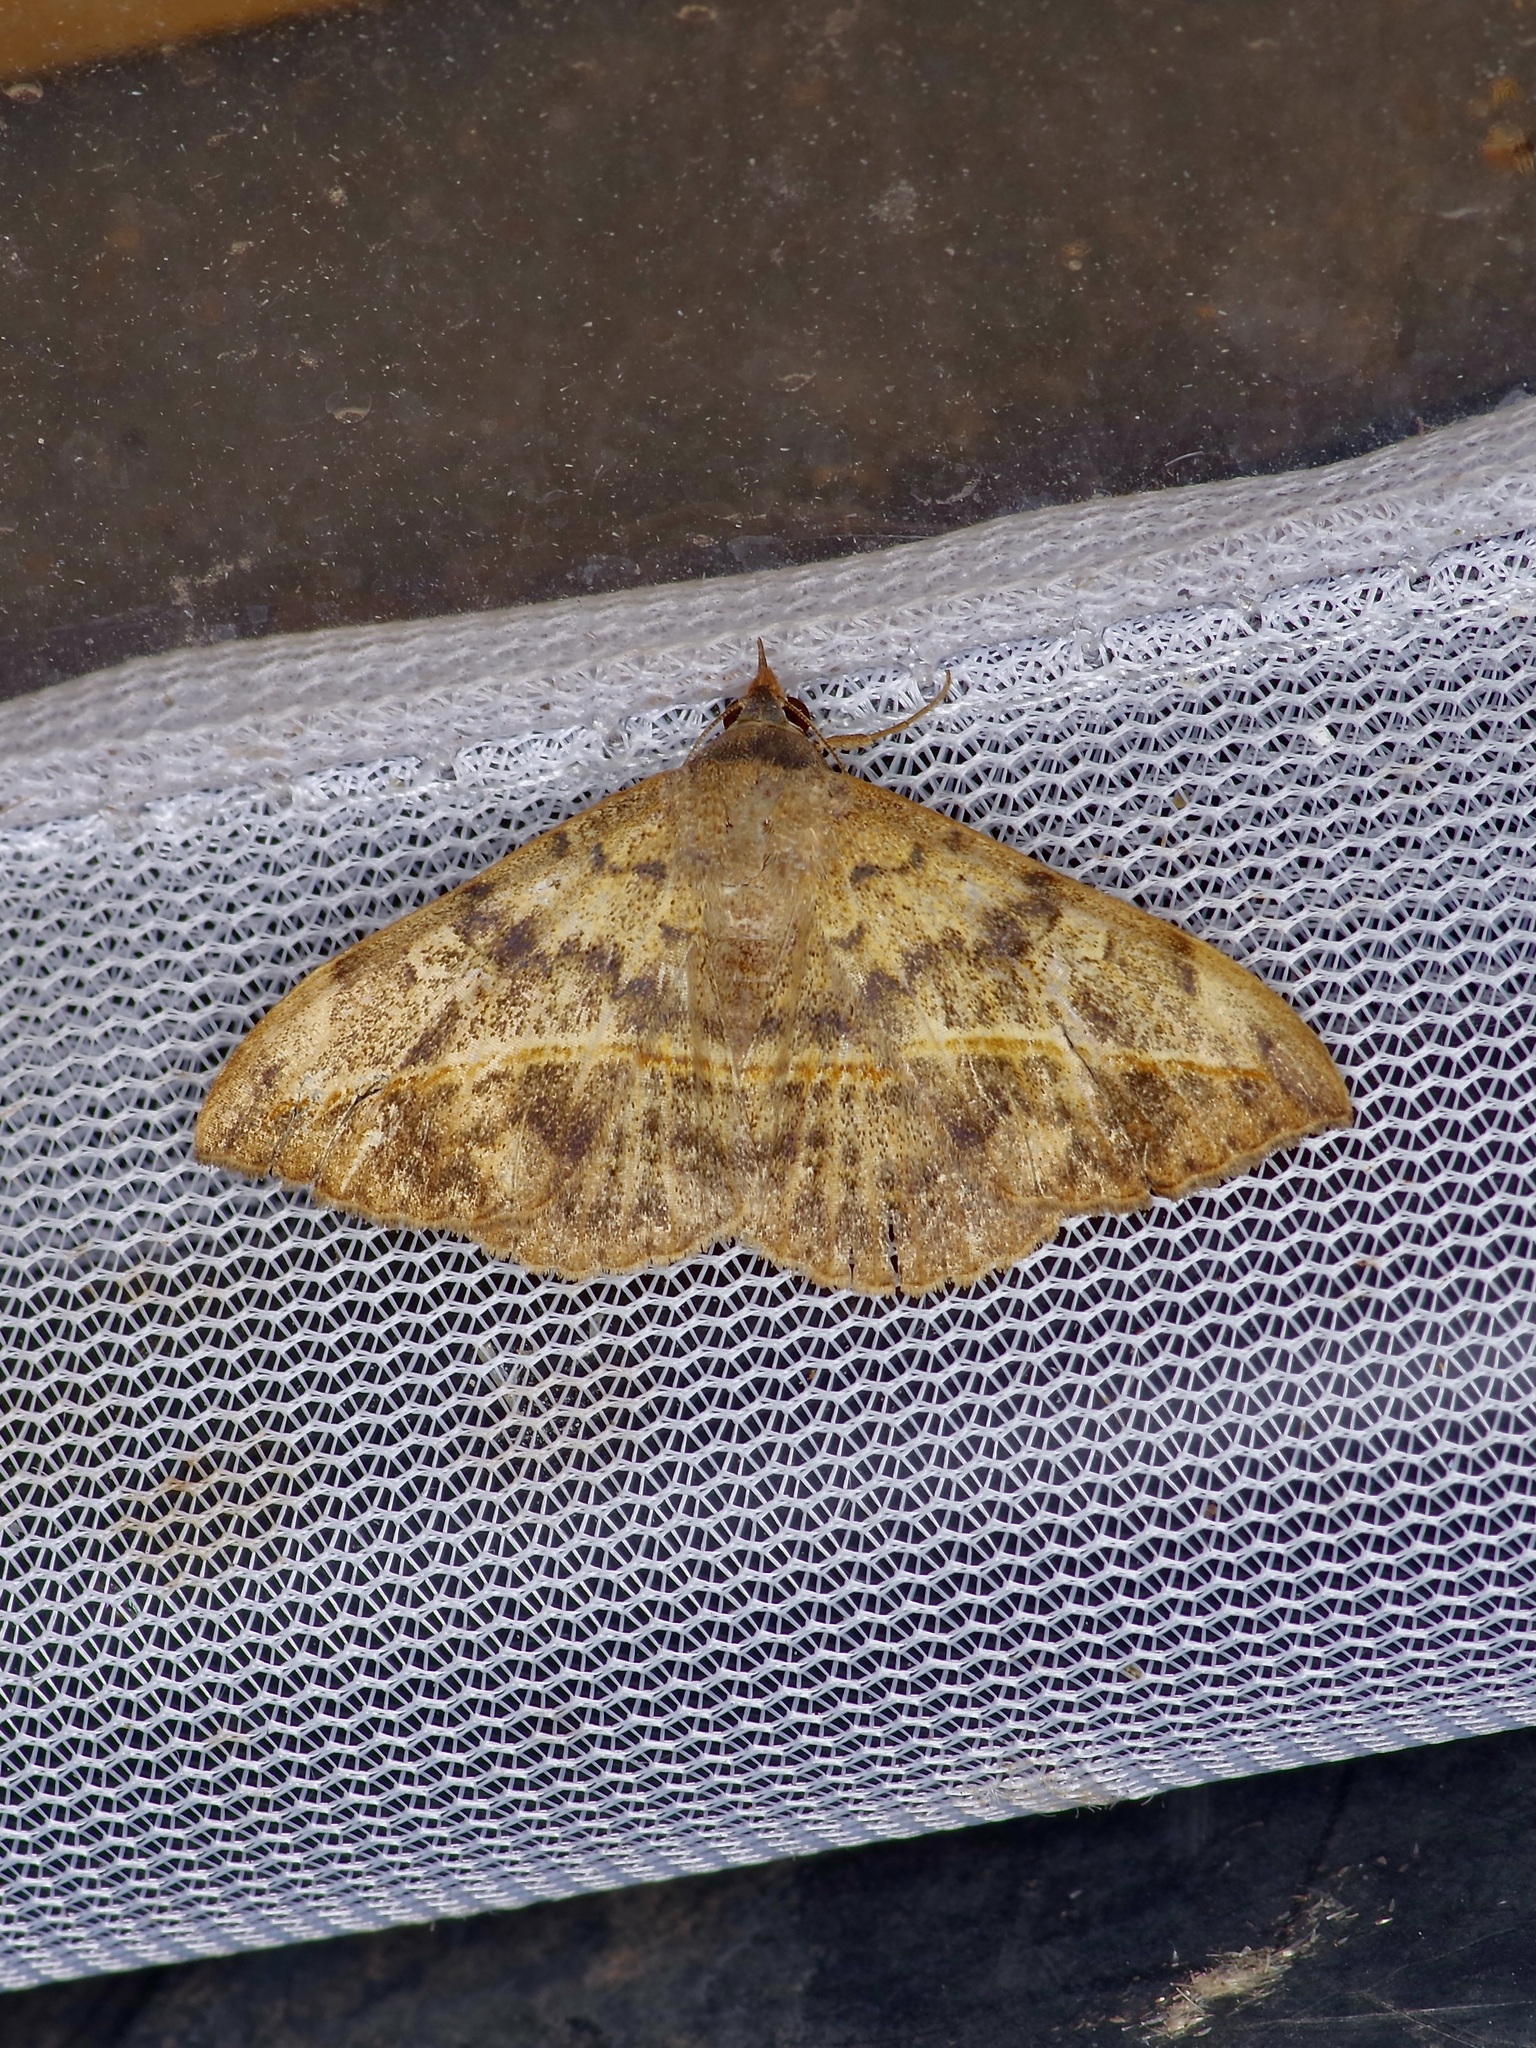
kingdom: Animalia
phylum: Arthropoda
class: Insecta
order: Lepidoptera
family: Erebidae
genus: Anticarsia
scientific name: Anticarsia gemmatalis
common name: Cutworm moth
